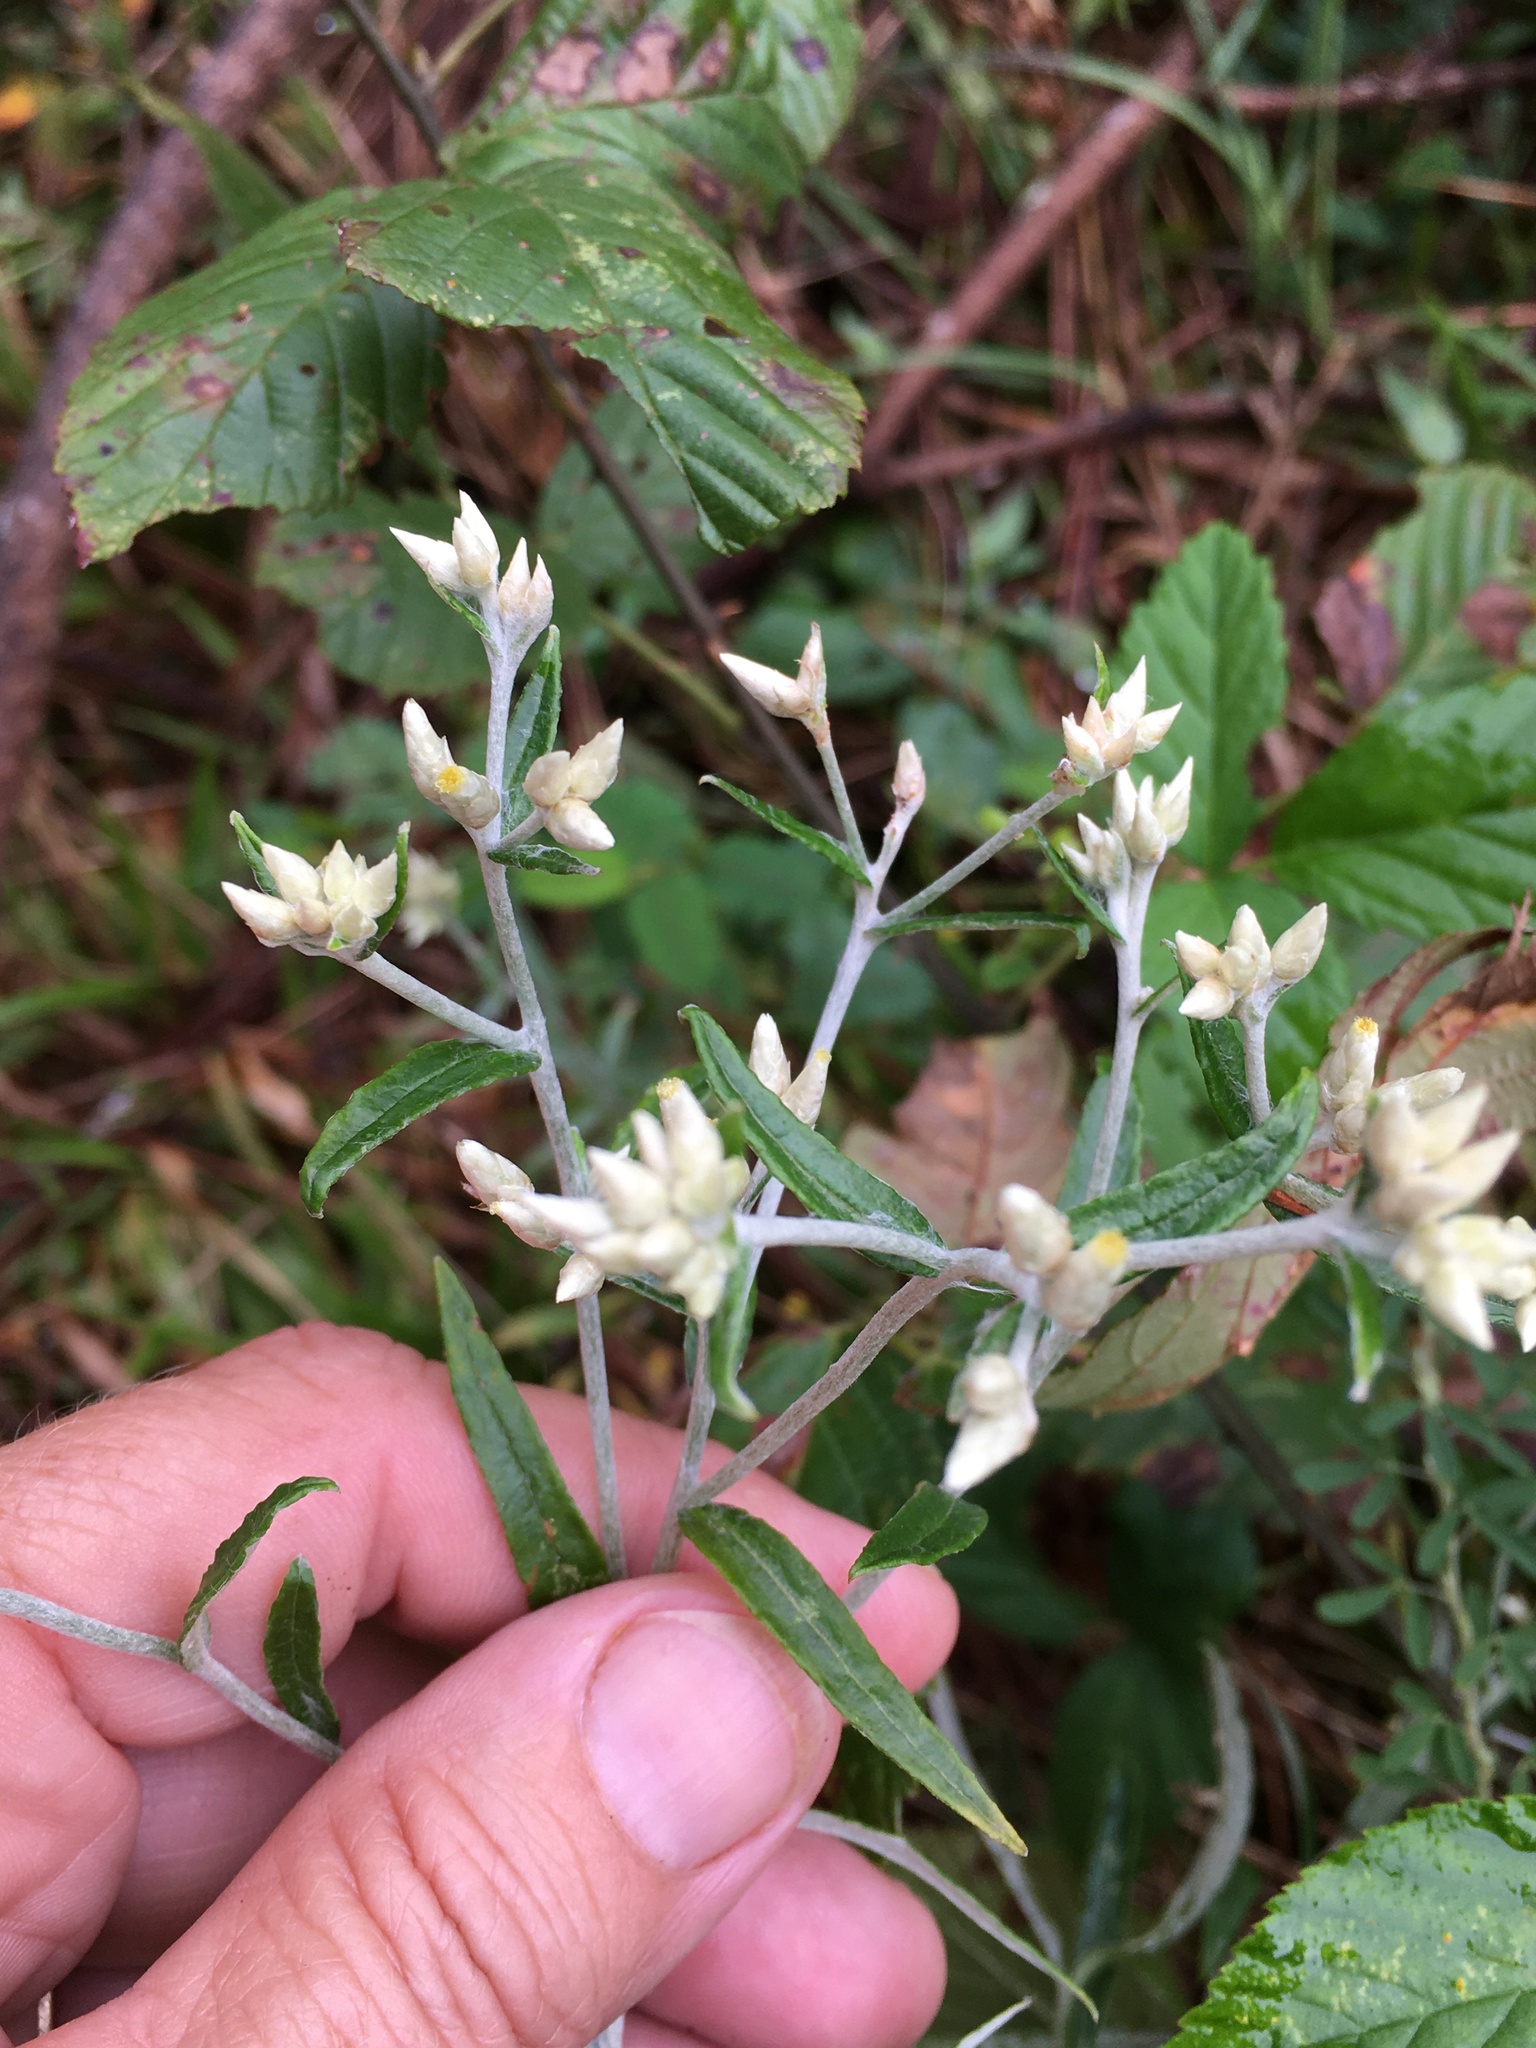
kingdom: Plantae
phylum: Tracheophyta
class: Magnoliopsida
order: Asterales
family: Asteraceae
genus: Pseudognaphalium
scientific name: Pseudognaphalium obtusifolium
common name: Eastern rabbit-tobacco
